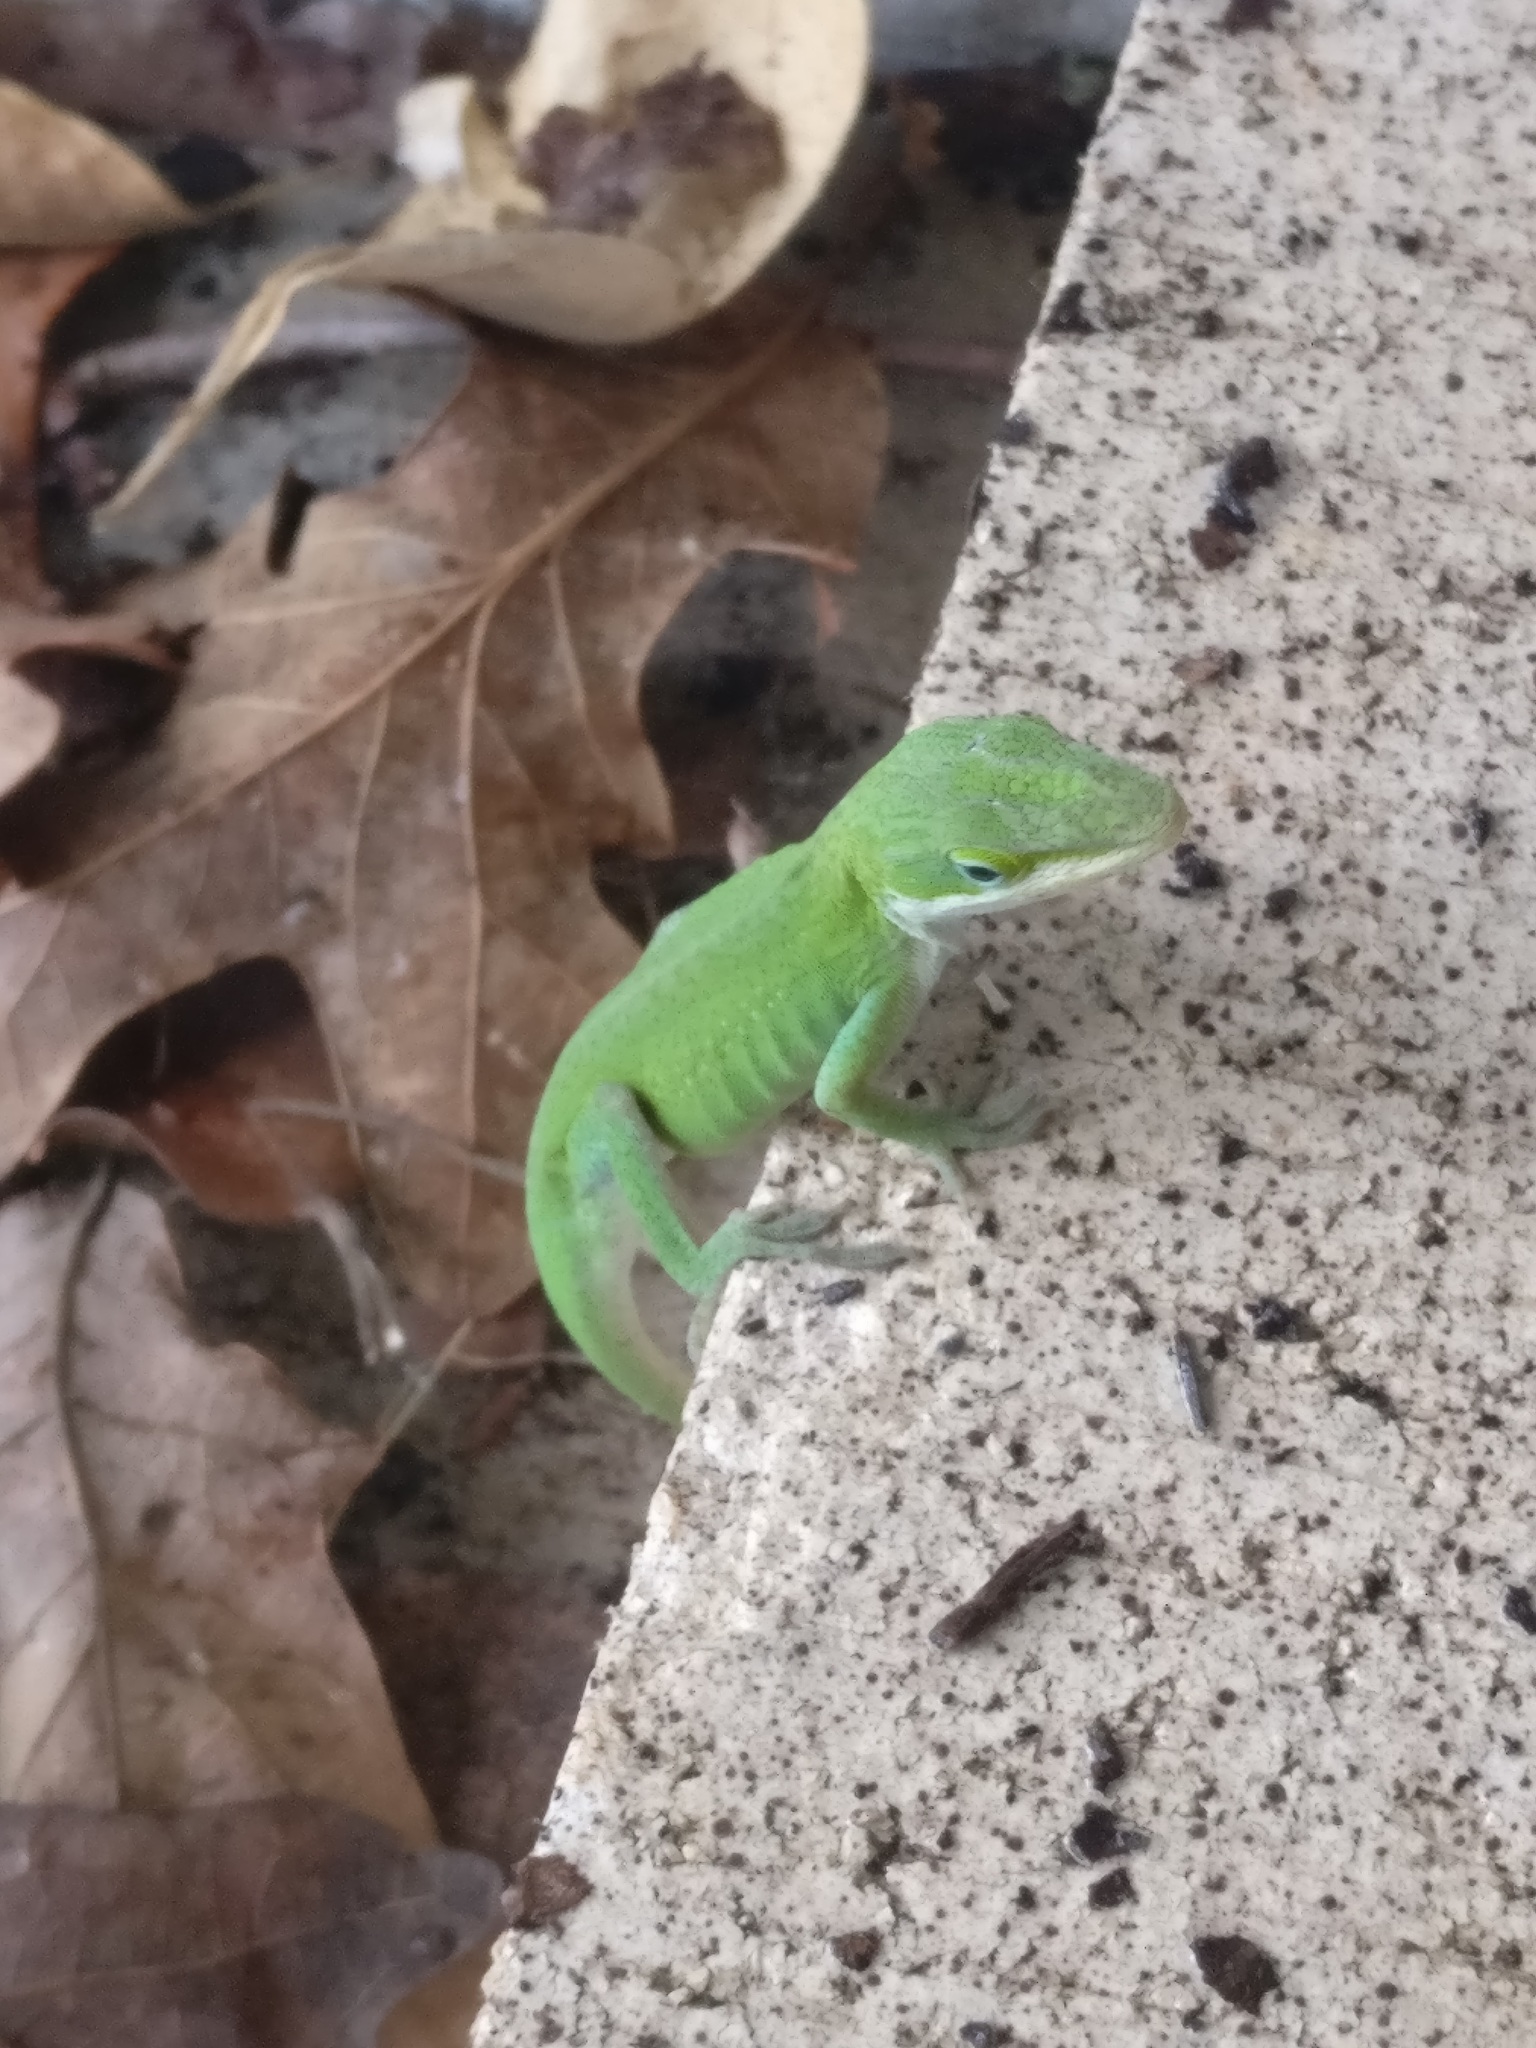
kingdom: Animalia
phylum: Chordata
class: Squamata
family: Dactyloidae
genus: Anolis
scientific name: Anolis carolinensis
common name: Green anole
